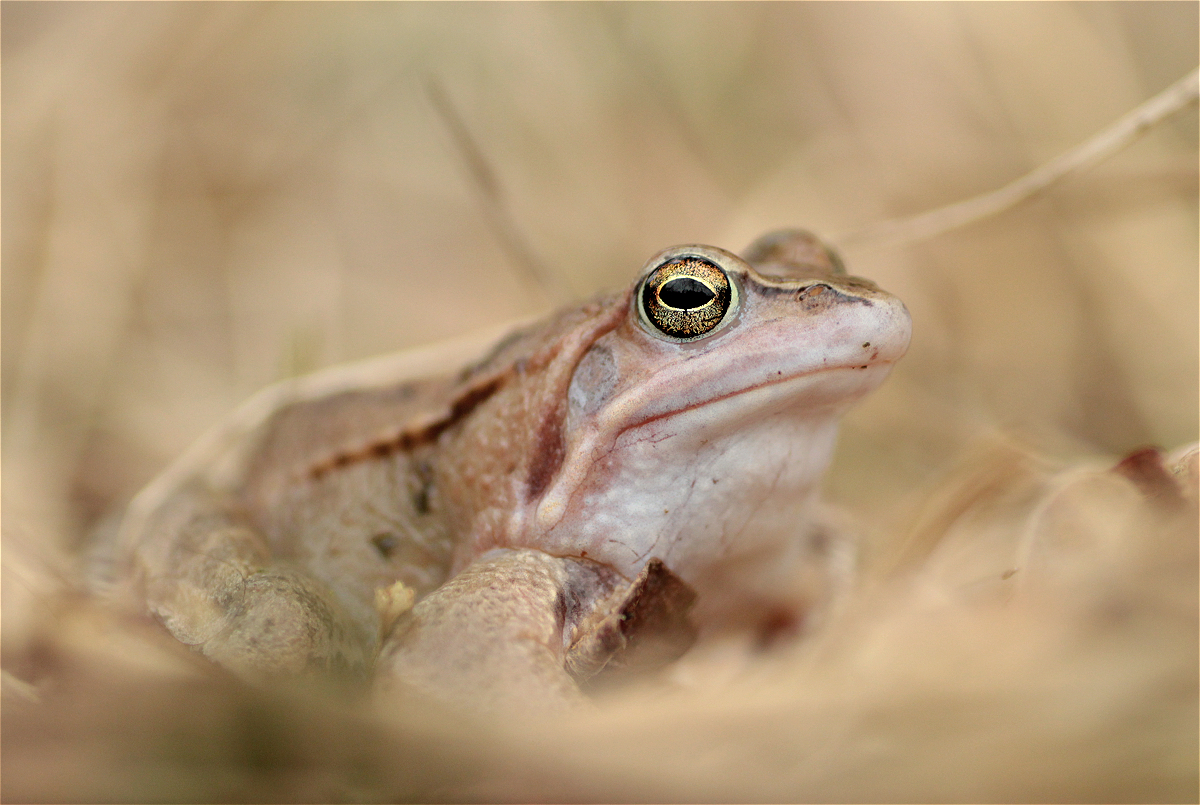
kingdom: Animalia
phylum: Chordata
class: Amphibia
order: Anura
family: Ranidae
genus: Rana
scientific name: Rana arvalis
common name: Moor frog
